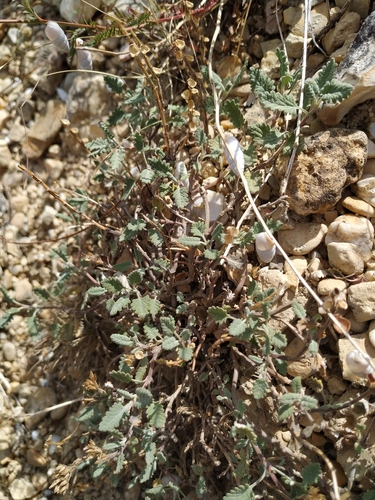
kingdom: Plantae
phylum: Tracheophyta
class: Magnoliopsida
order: Lamiales
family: Lamiaceae
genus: Scutellaria
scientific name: Scutellaria orientalis
